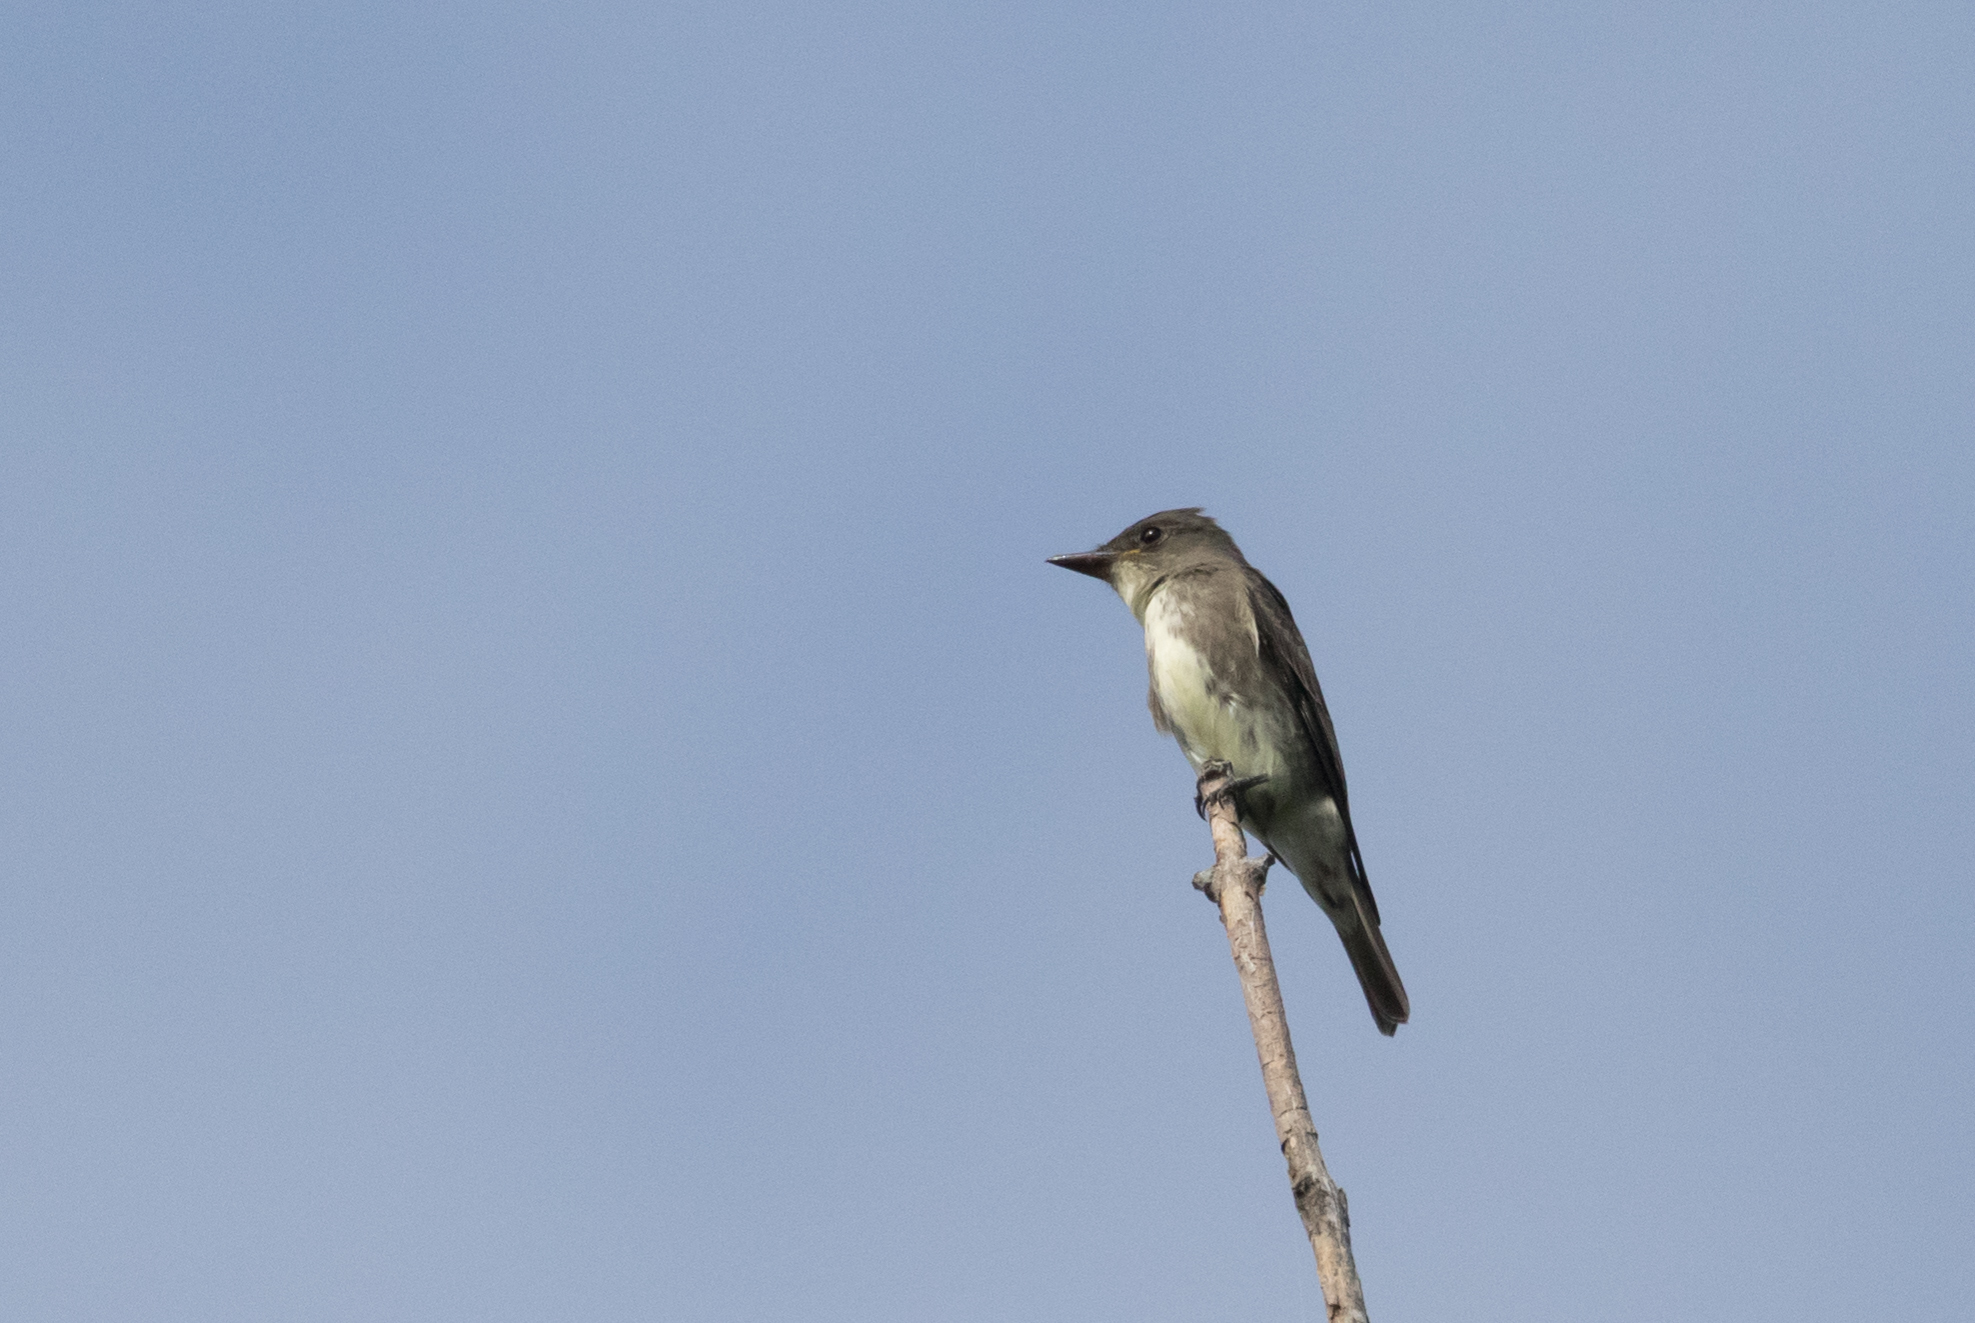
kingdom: Animalia
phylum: Chordata
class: Aves
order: Passeriformes
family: Tyrannidae
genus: Contopus
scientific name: Contopus cooperi
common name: Olive-sided flycatcher
